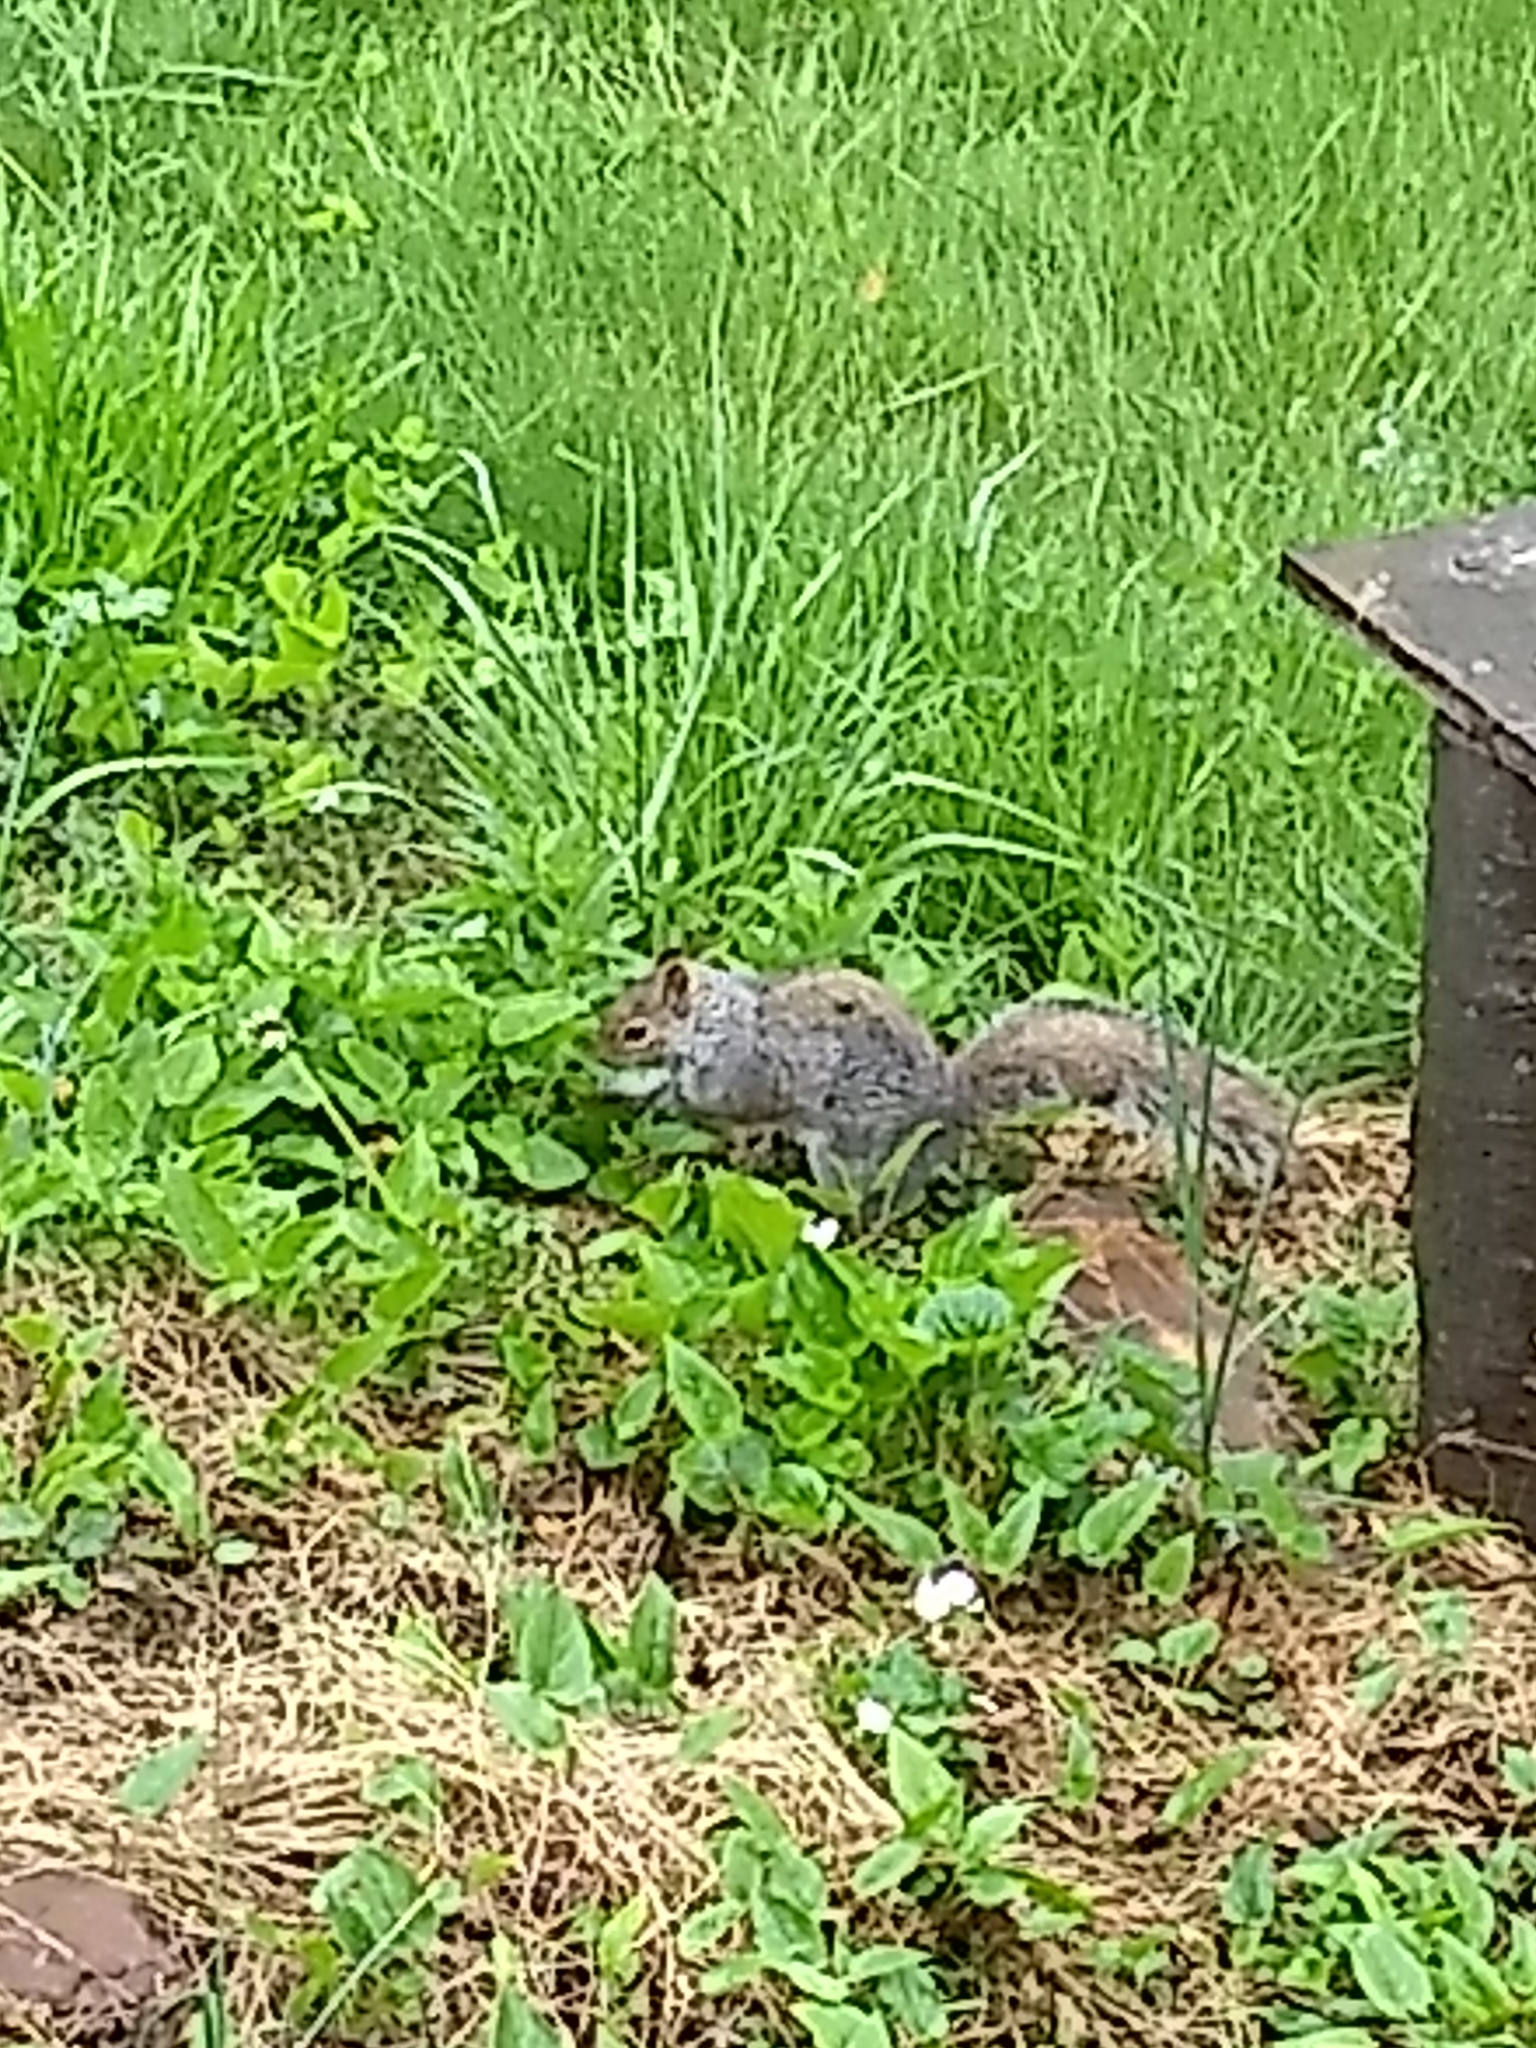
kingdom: Animalia
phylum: Chordata
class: Mammalia
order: Rodentia
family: Sciuridae
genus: Sciurus
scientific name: Sciurus carolinensis
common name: Eastern gray squirrel
